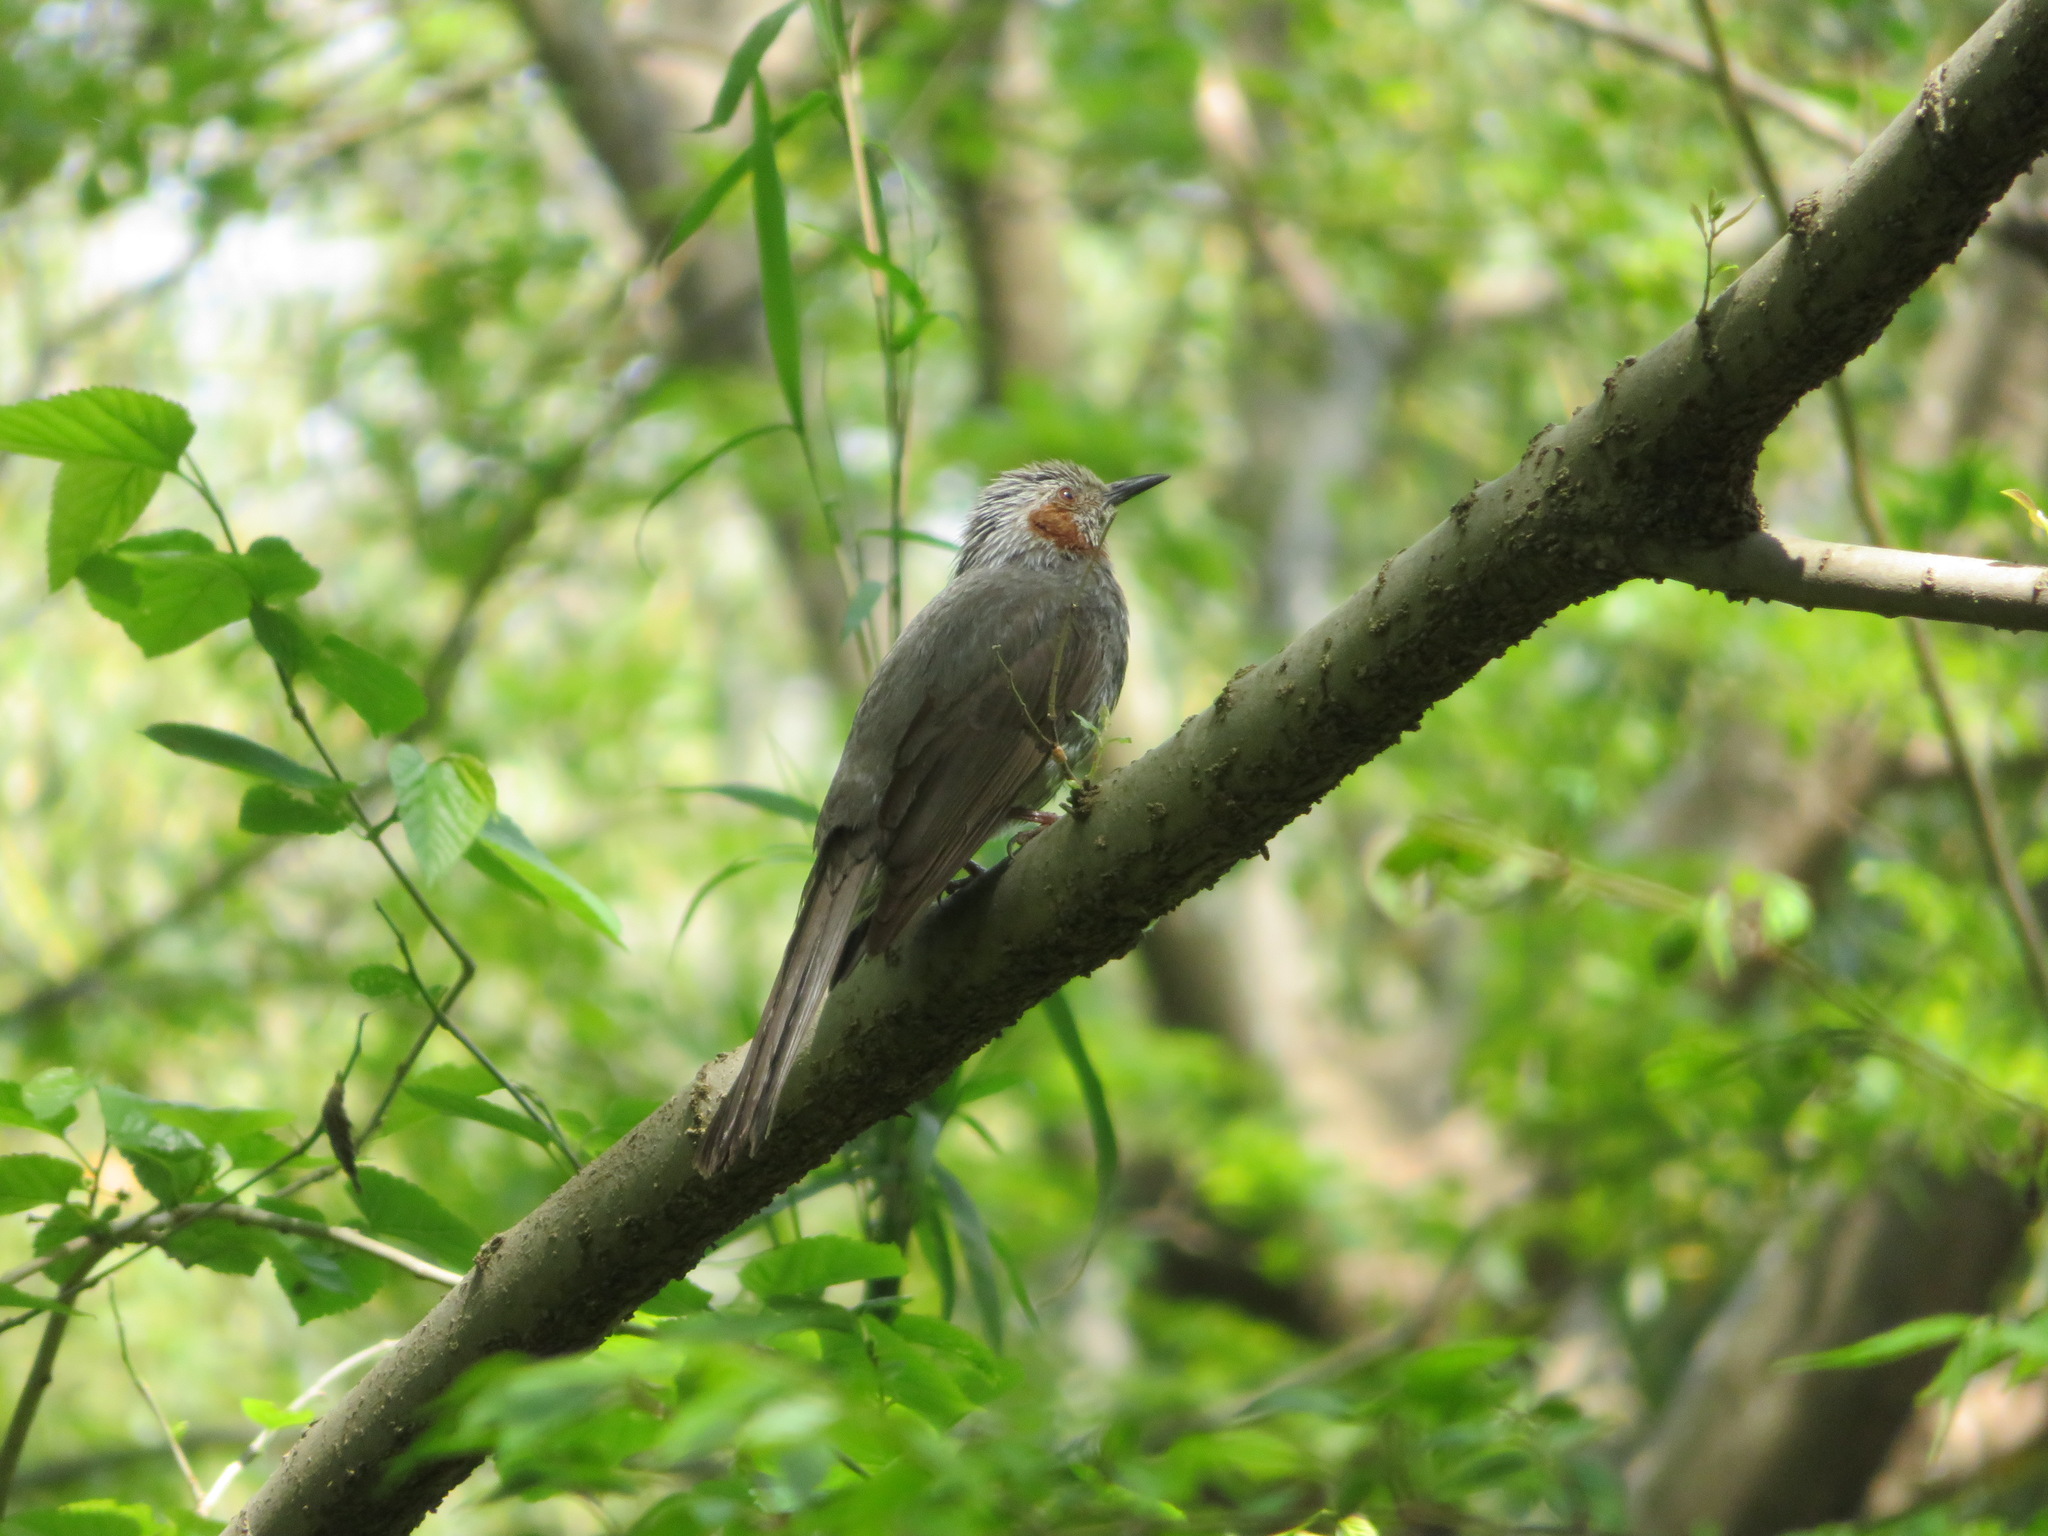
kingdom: Animalia
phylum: Chordata
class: Aves
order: Passeriformes
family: Pycnonotidae
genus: Hypsipetes
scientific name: Hypsipetes amaurotis
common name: Brown-eared bulbul
